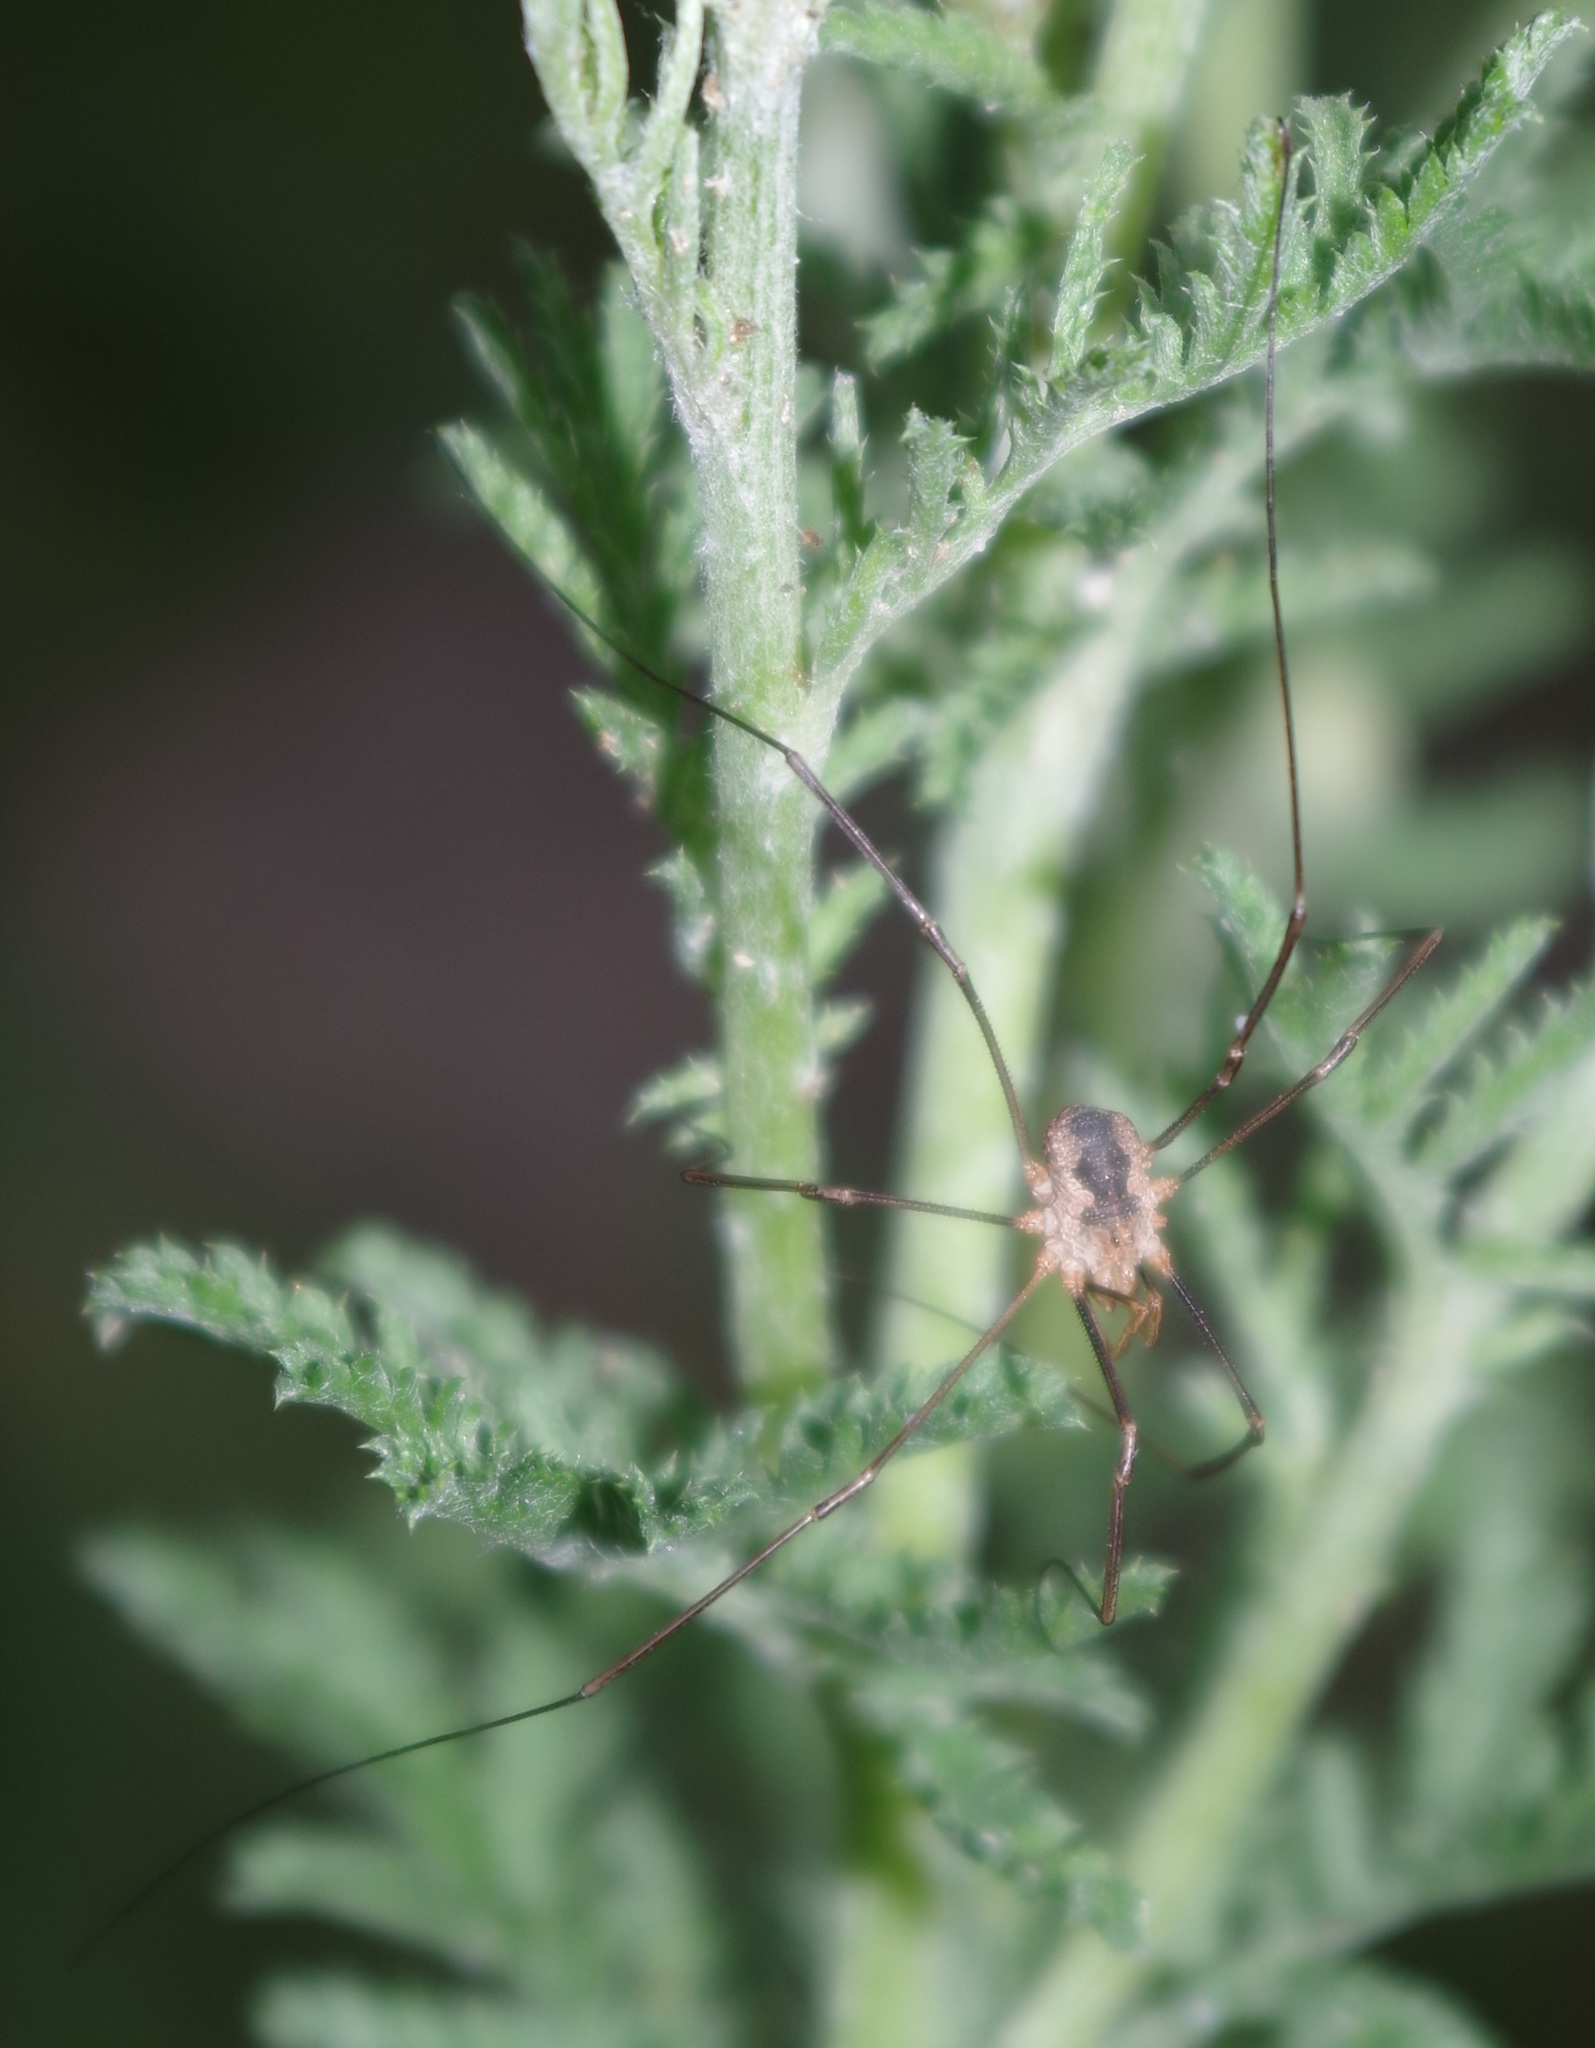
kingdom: Animalia
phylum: Arthropoda
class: Arachnida
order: Opiliones
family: Phalangiidae
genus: Phalangium
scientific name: Phalangium opilio
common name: Daddy longleg
